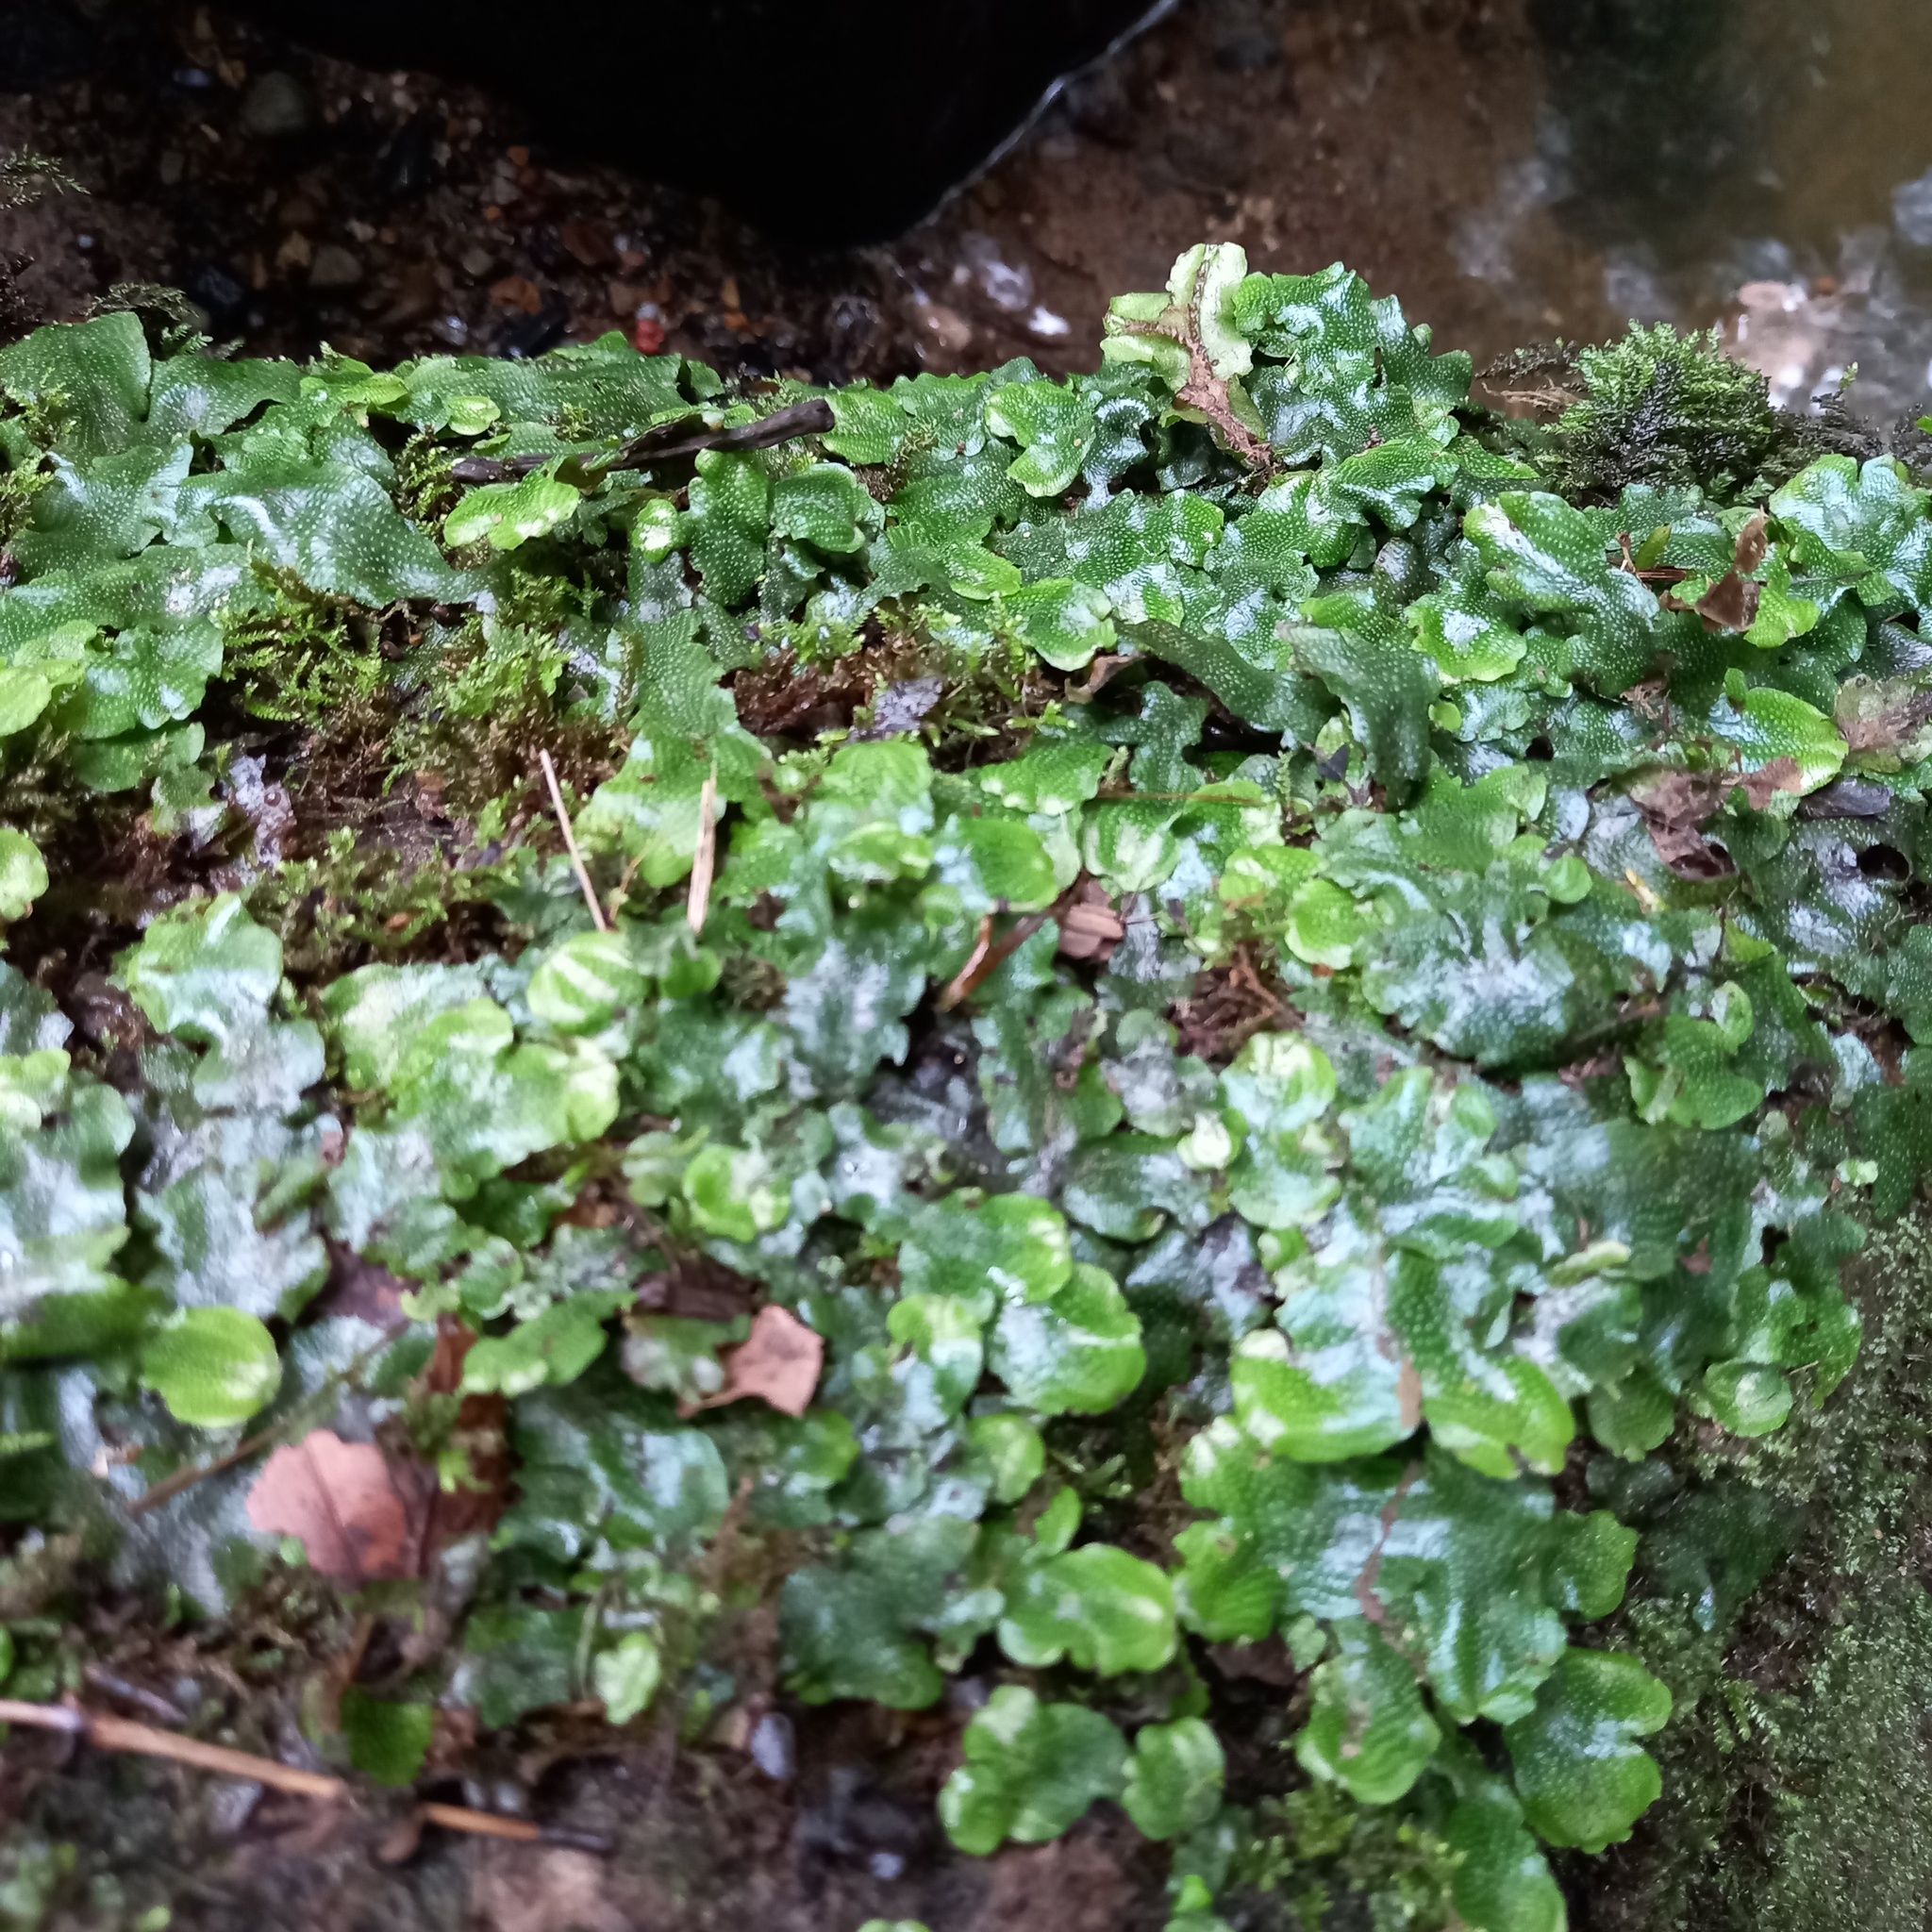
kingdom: Plantae
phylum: Marchantiophyta
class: Marchantiopsida
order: Marchantiales
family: Conocephalaceae
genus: Conocephalum
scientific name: Conocephalum conicum
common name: Great scented liverwort
